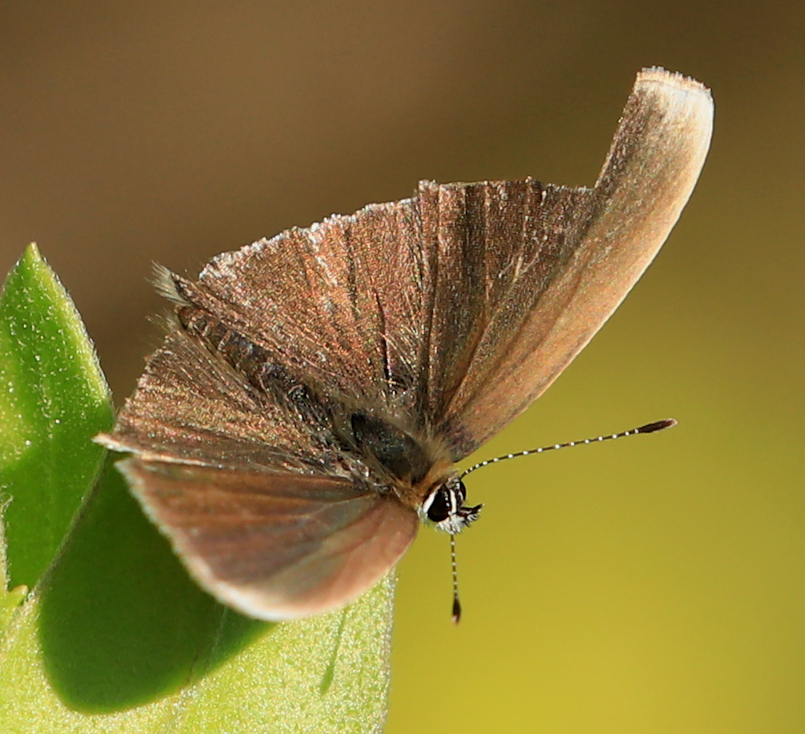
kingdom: Animalia
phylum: Arthropoda
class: Insecta
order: Lepidoptera
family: Lycaenidae
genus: Eicochrysops
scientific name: Eicochrysops hippocrates
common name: White-tipped blue
